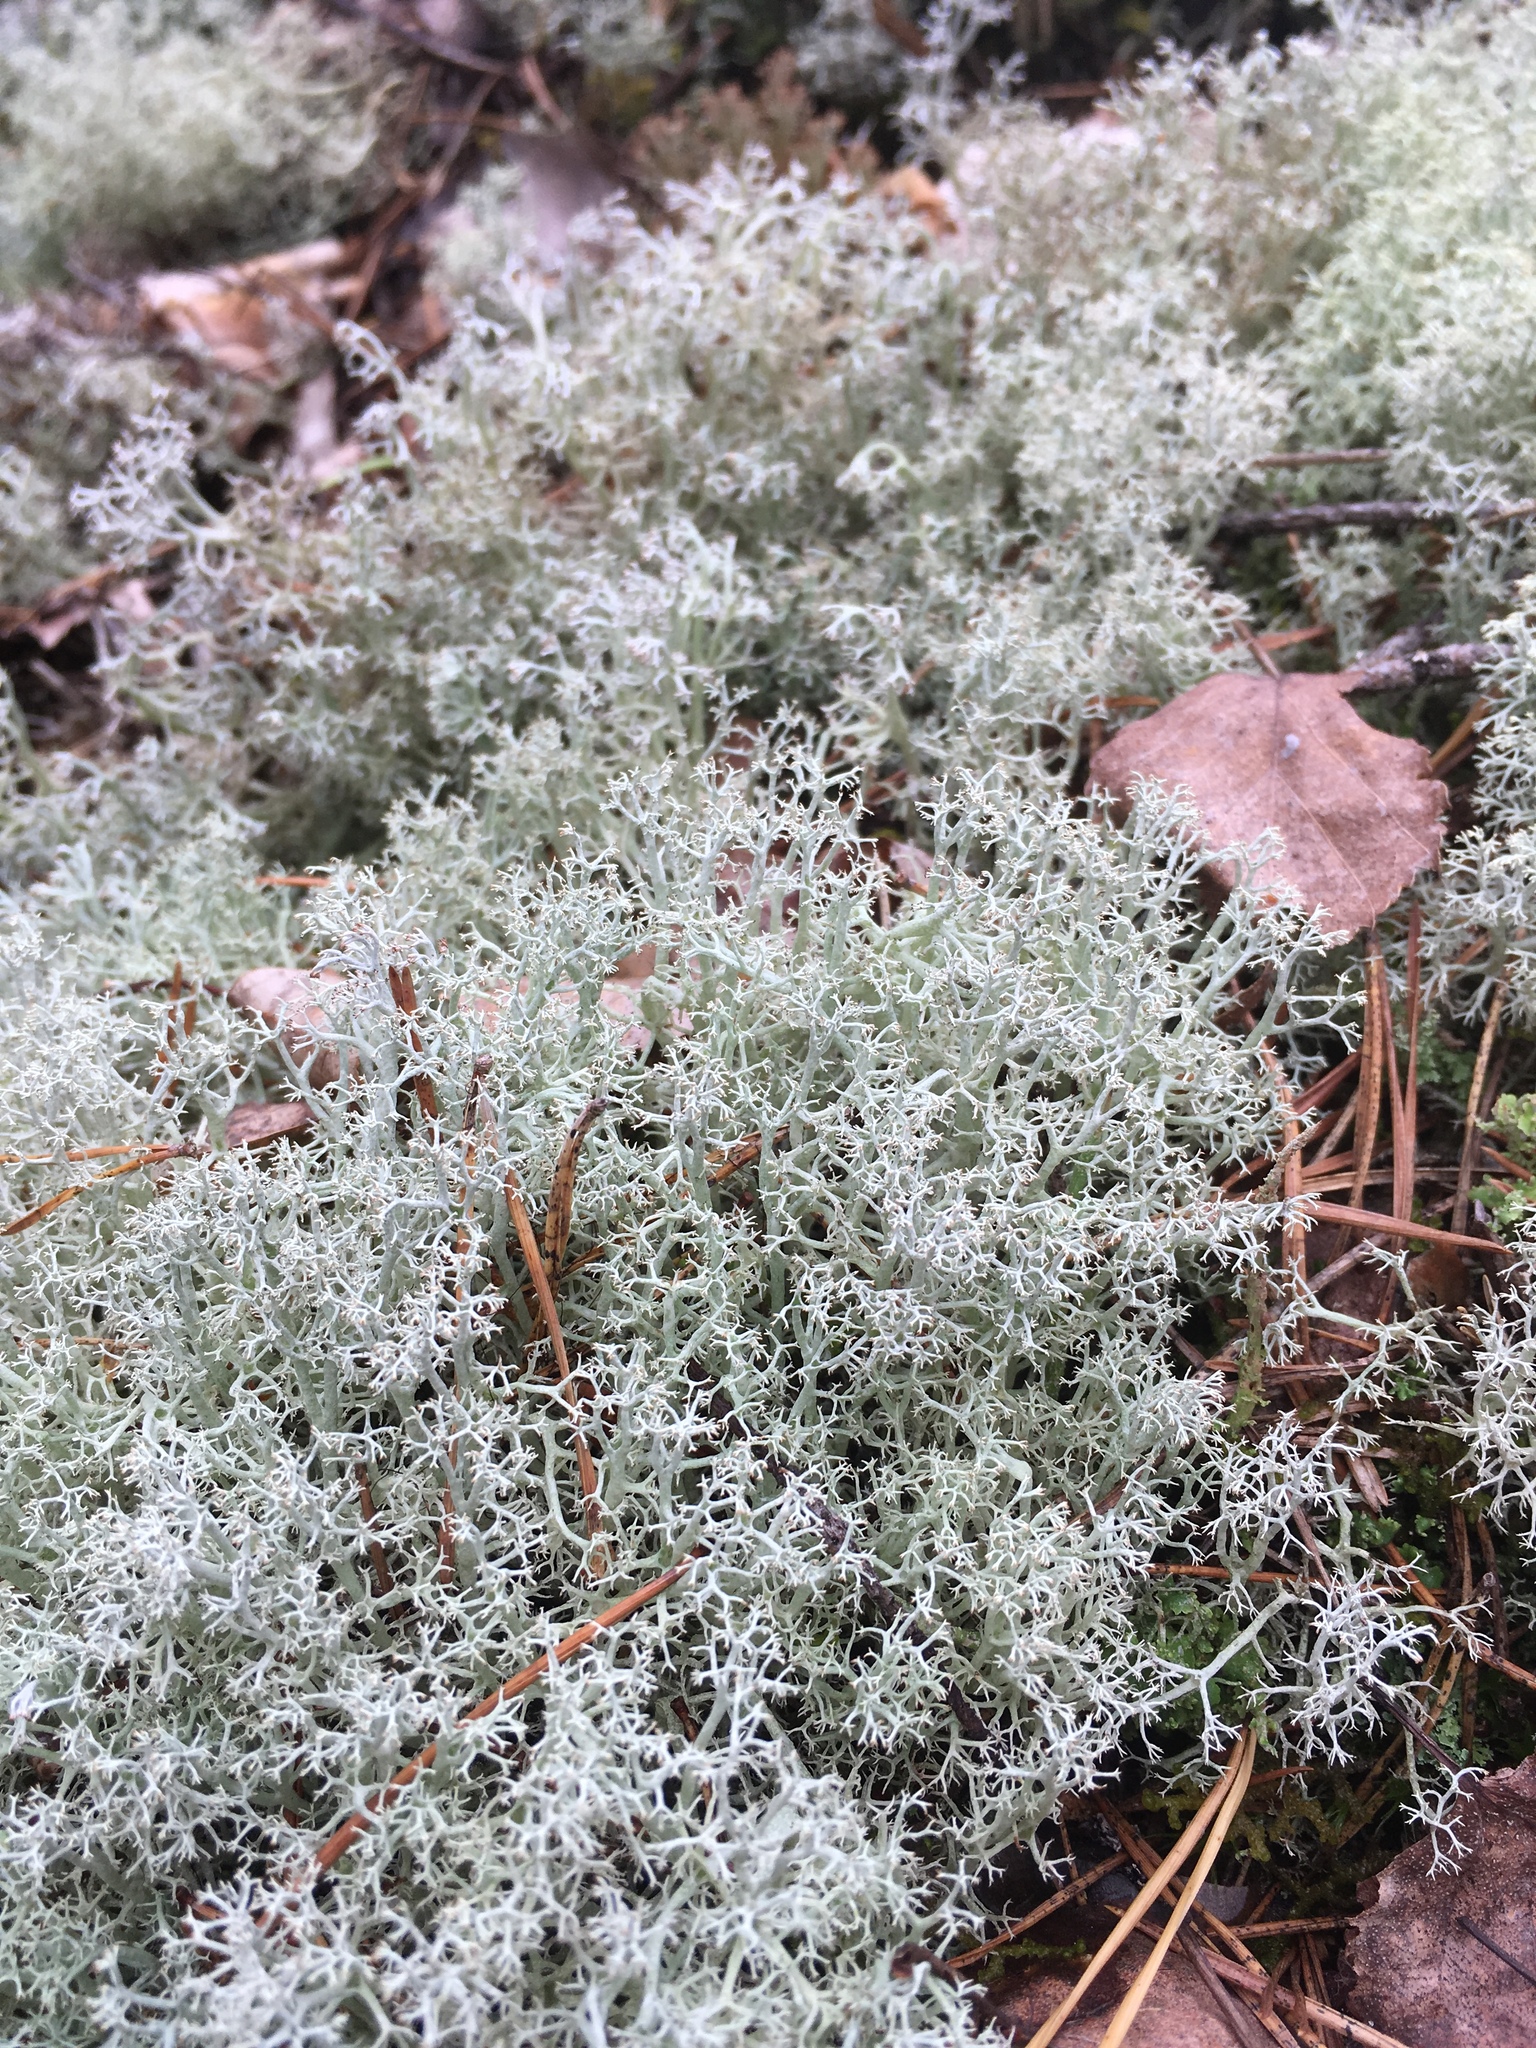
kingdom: Fungi
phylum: Ascomycota
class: Lecanoromycetes
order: Lecanorales
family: Cladoniaceae
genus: Cladonia
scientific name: Cladonia rangiferina
